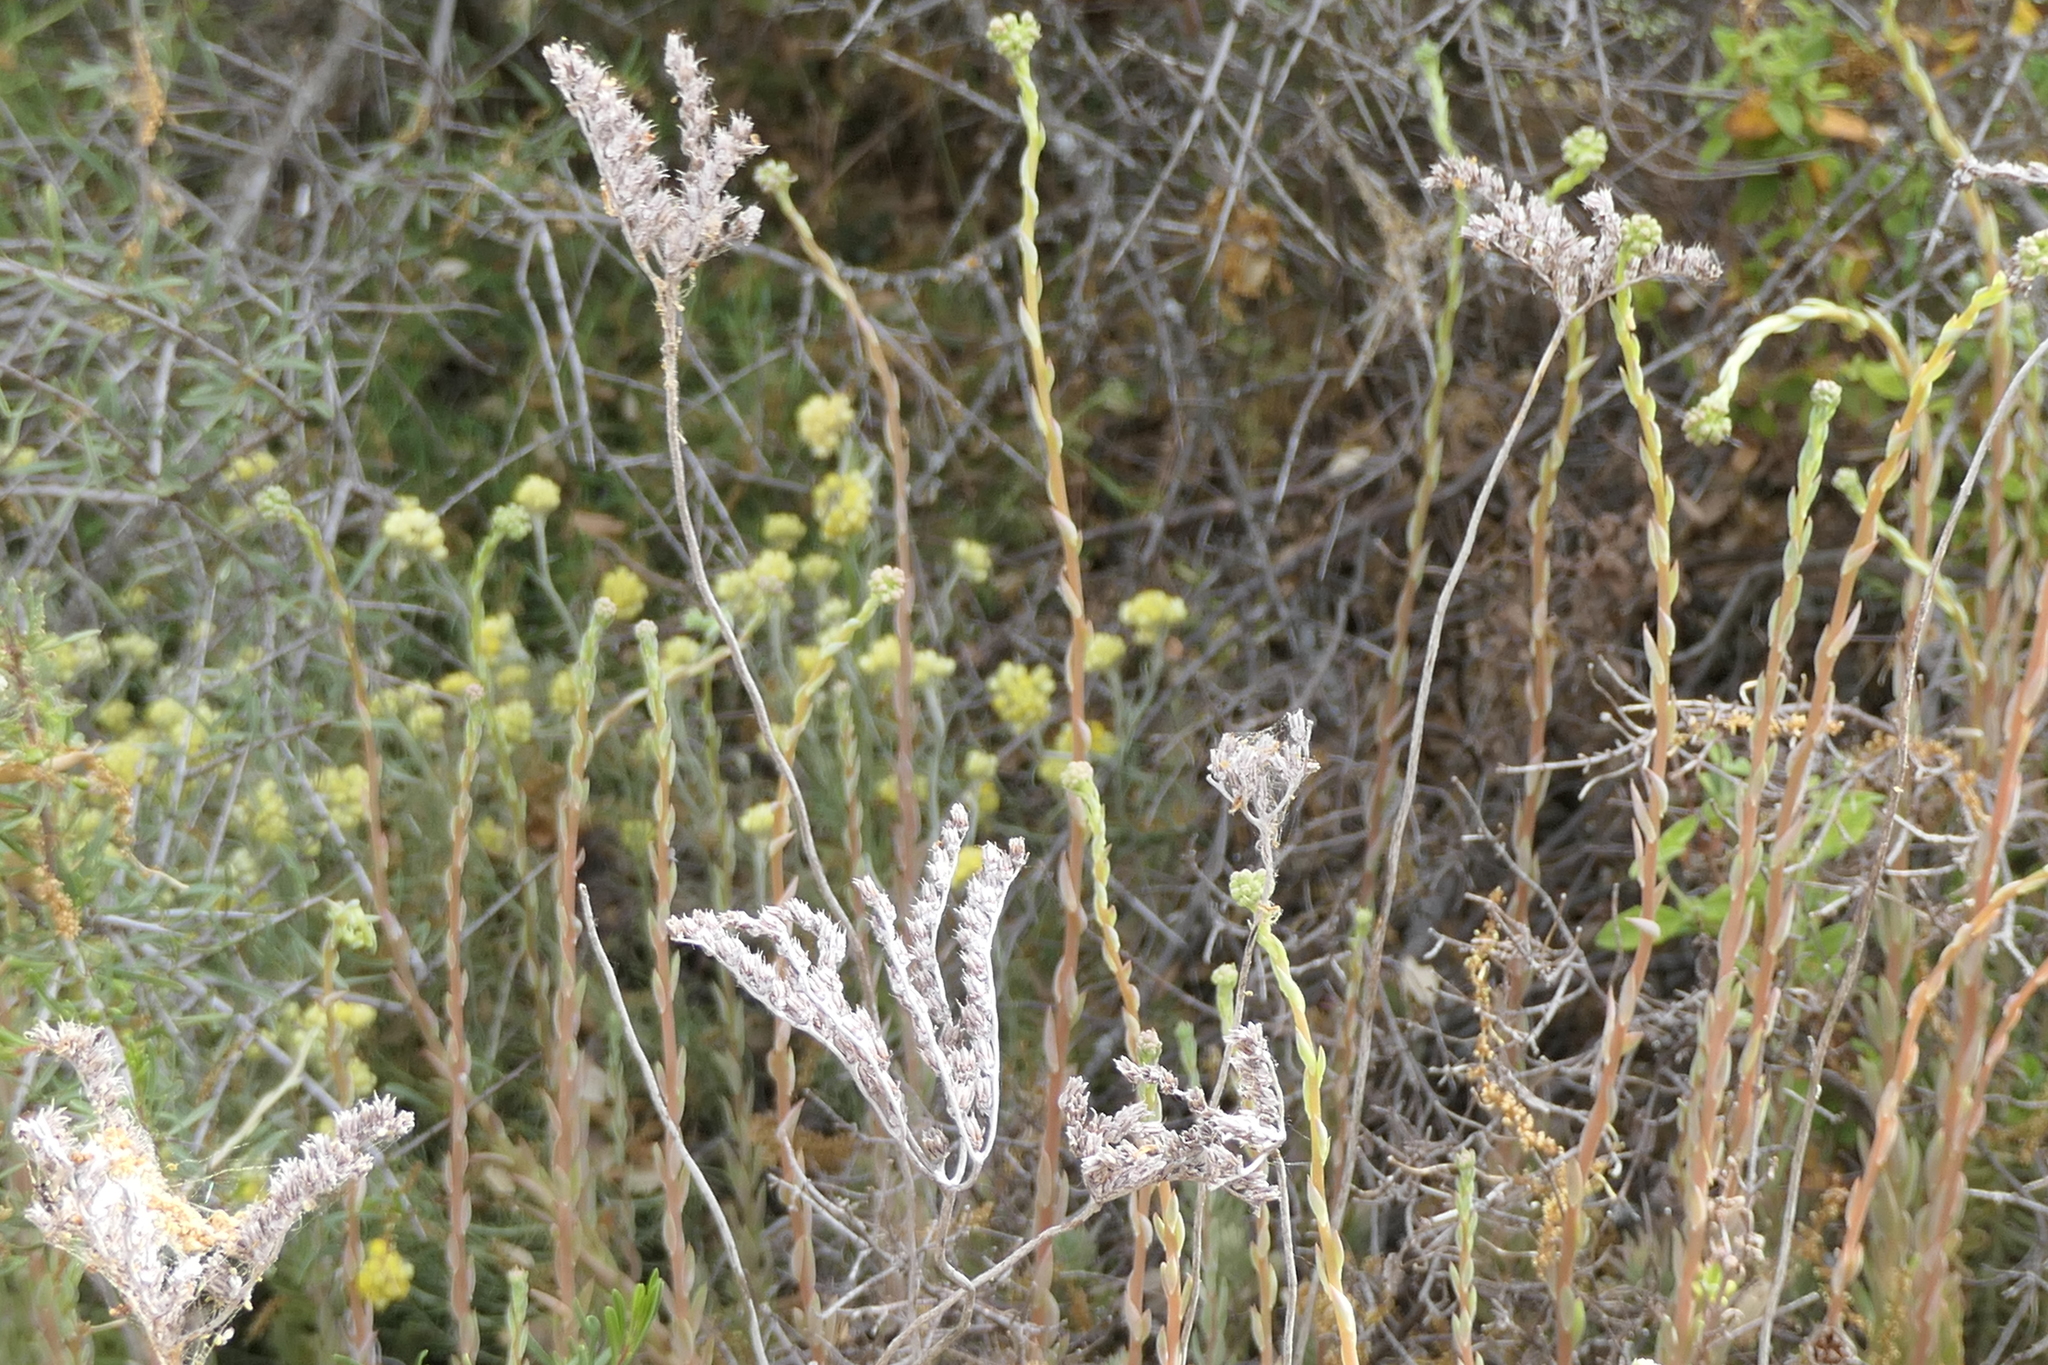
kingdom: Plantae
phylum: Tracheophyta
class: Magnoliopsida
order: Saxifragales
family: Crassulaceae
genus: Petrosedum
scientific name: Petrosedum sediforme
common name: Pale stonecrop
